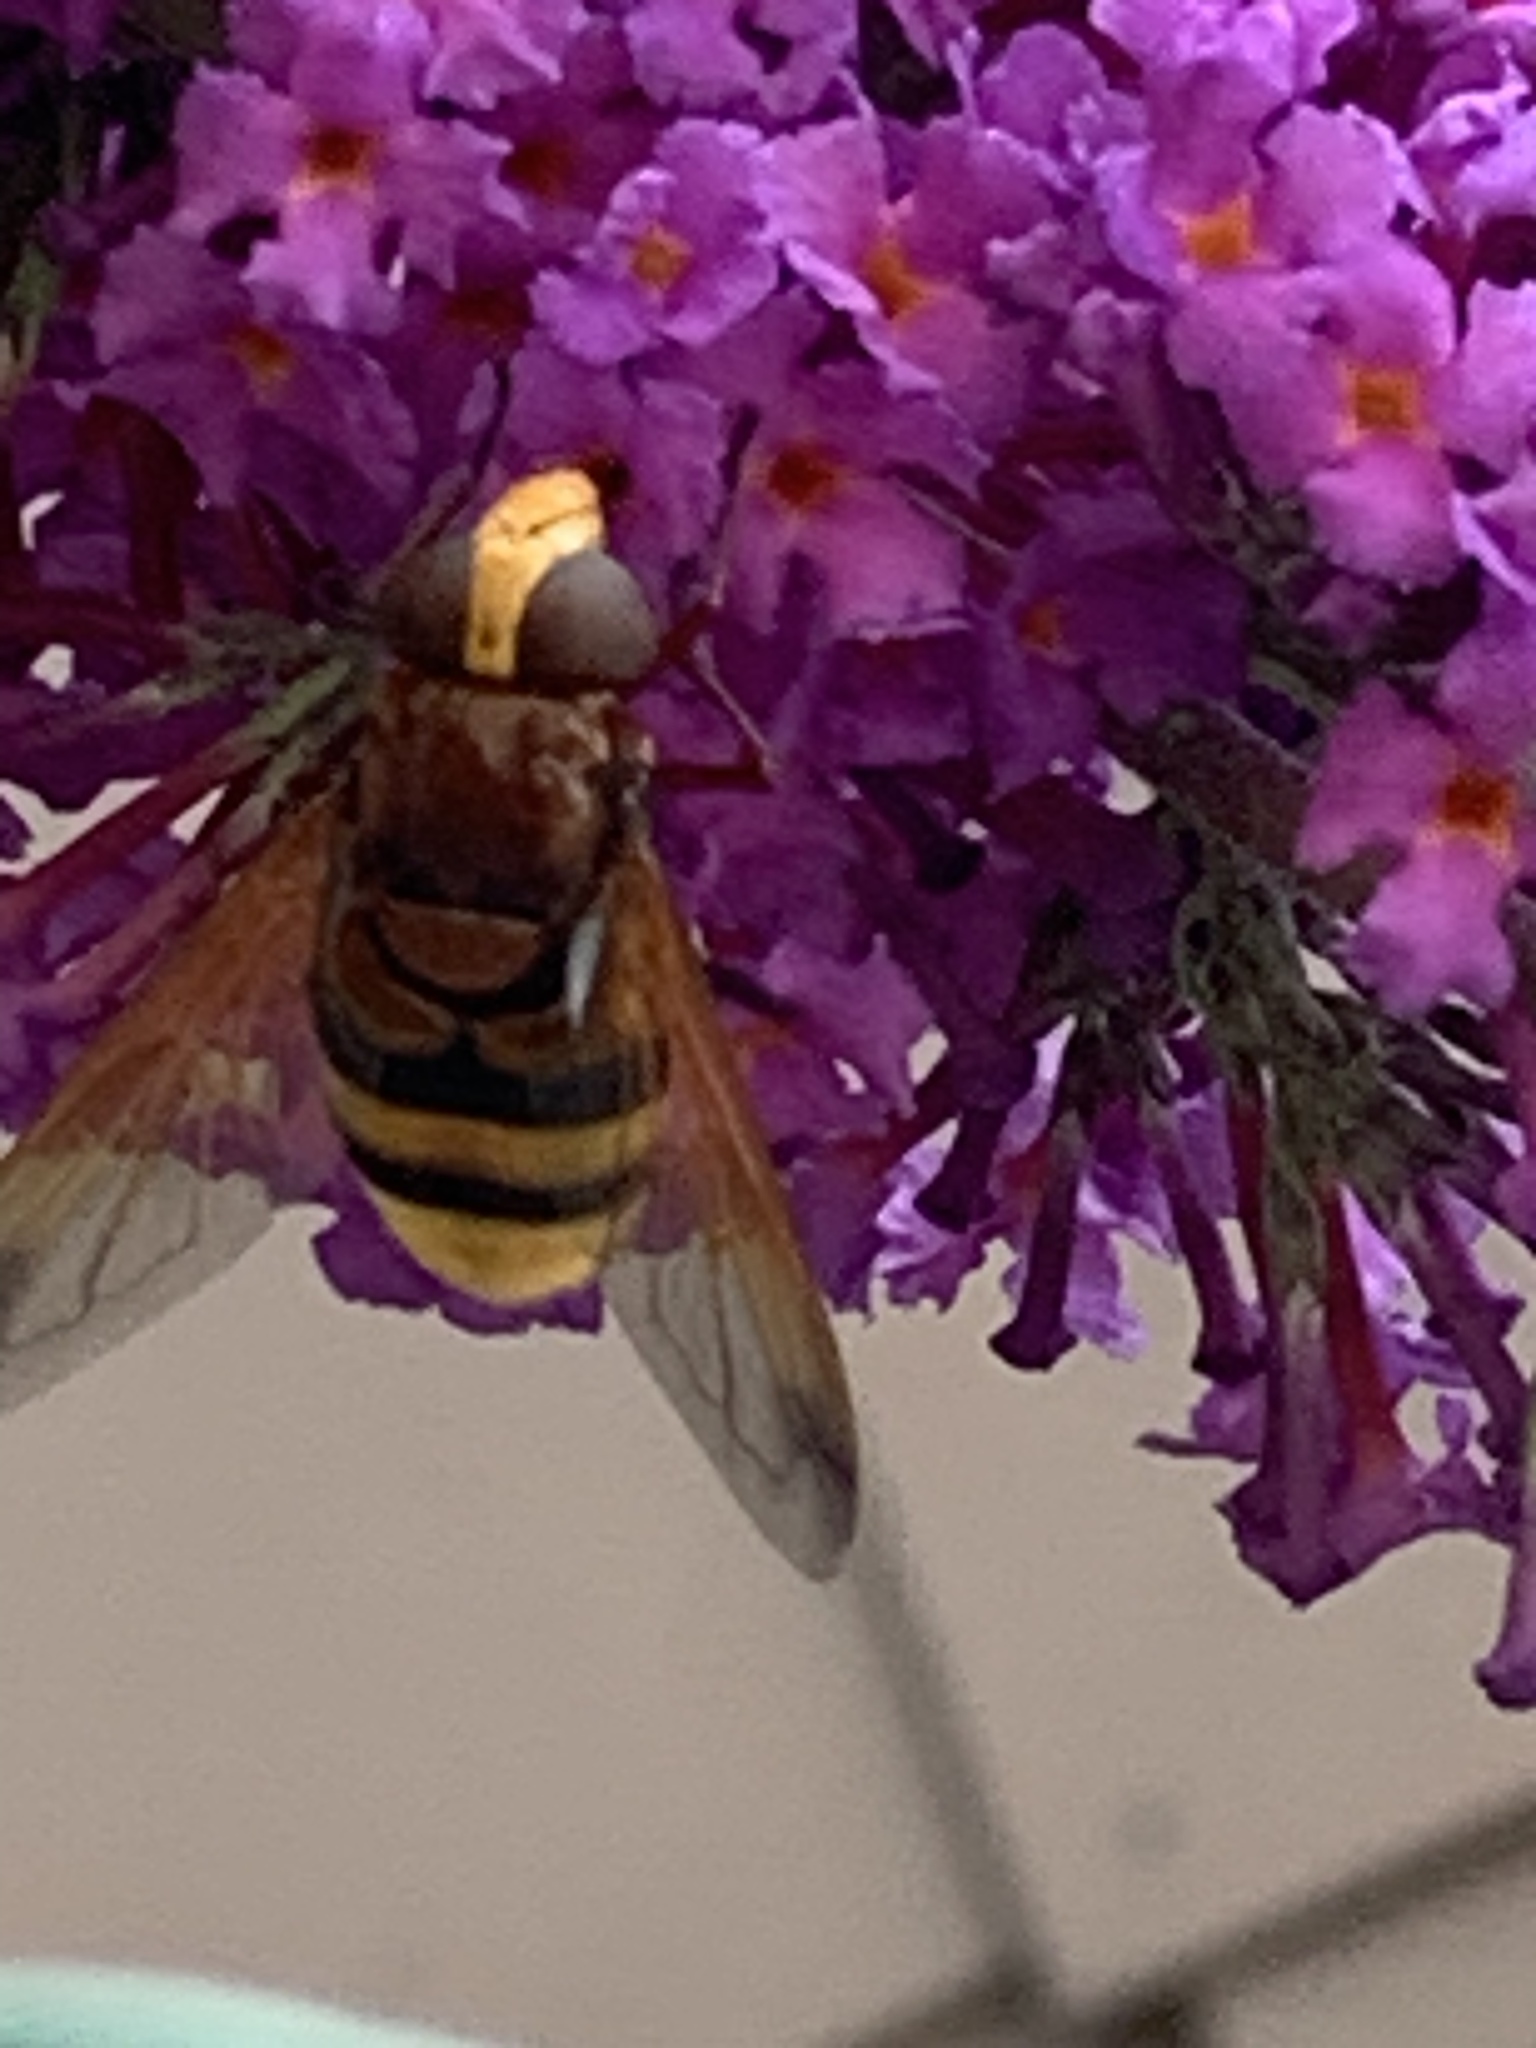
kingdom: Animalia
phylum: Arthropoda
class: Insecta
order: Diptera
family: Syrphidae
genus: Volucella
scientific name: Volucella zonaria
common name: Hornet hoverfly
